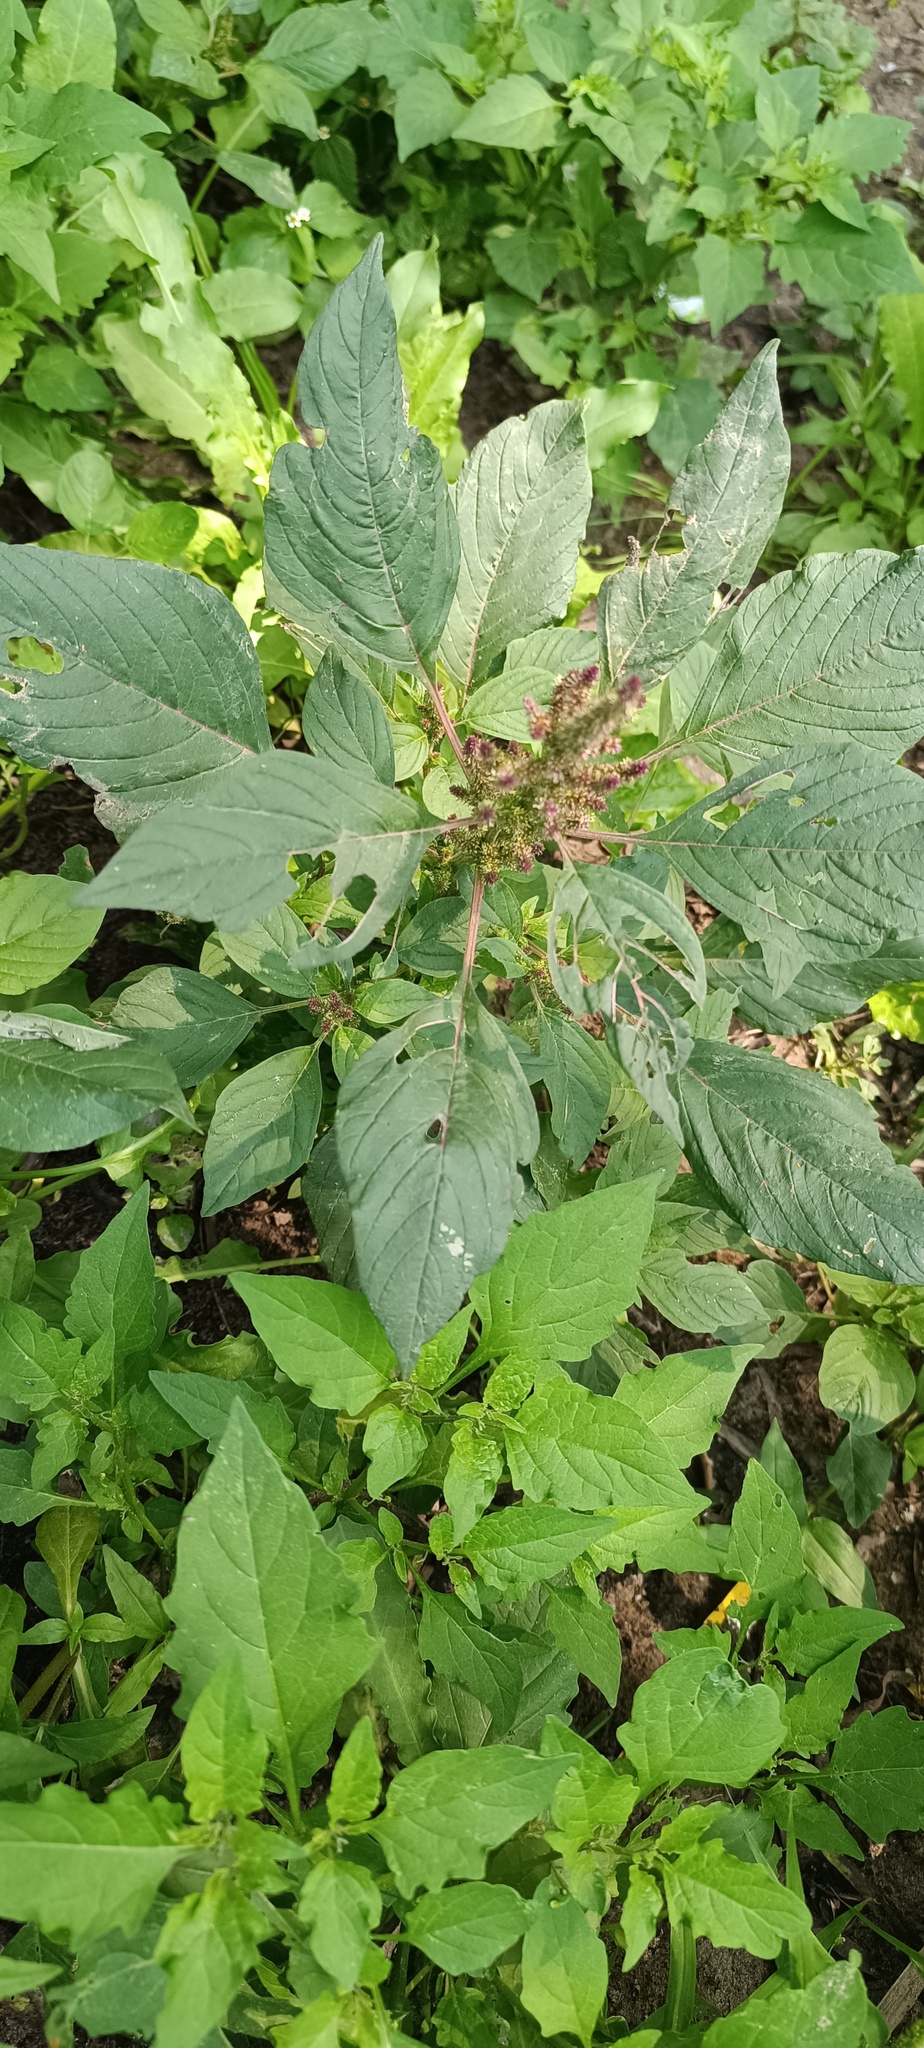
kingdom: Plantae
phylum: Tracheophyta
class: Magnoliopsida
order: Caryophyllales
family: Amaranthaceae
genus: Amaranthus
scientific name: Amaranthus hybridus
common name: Green amaranth
